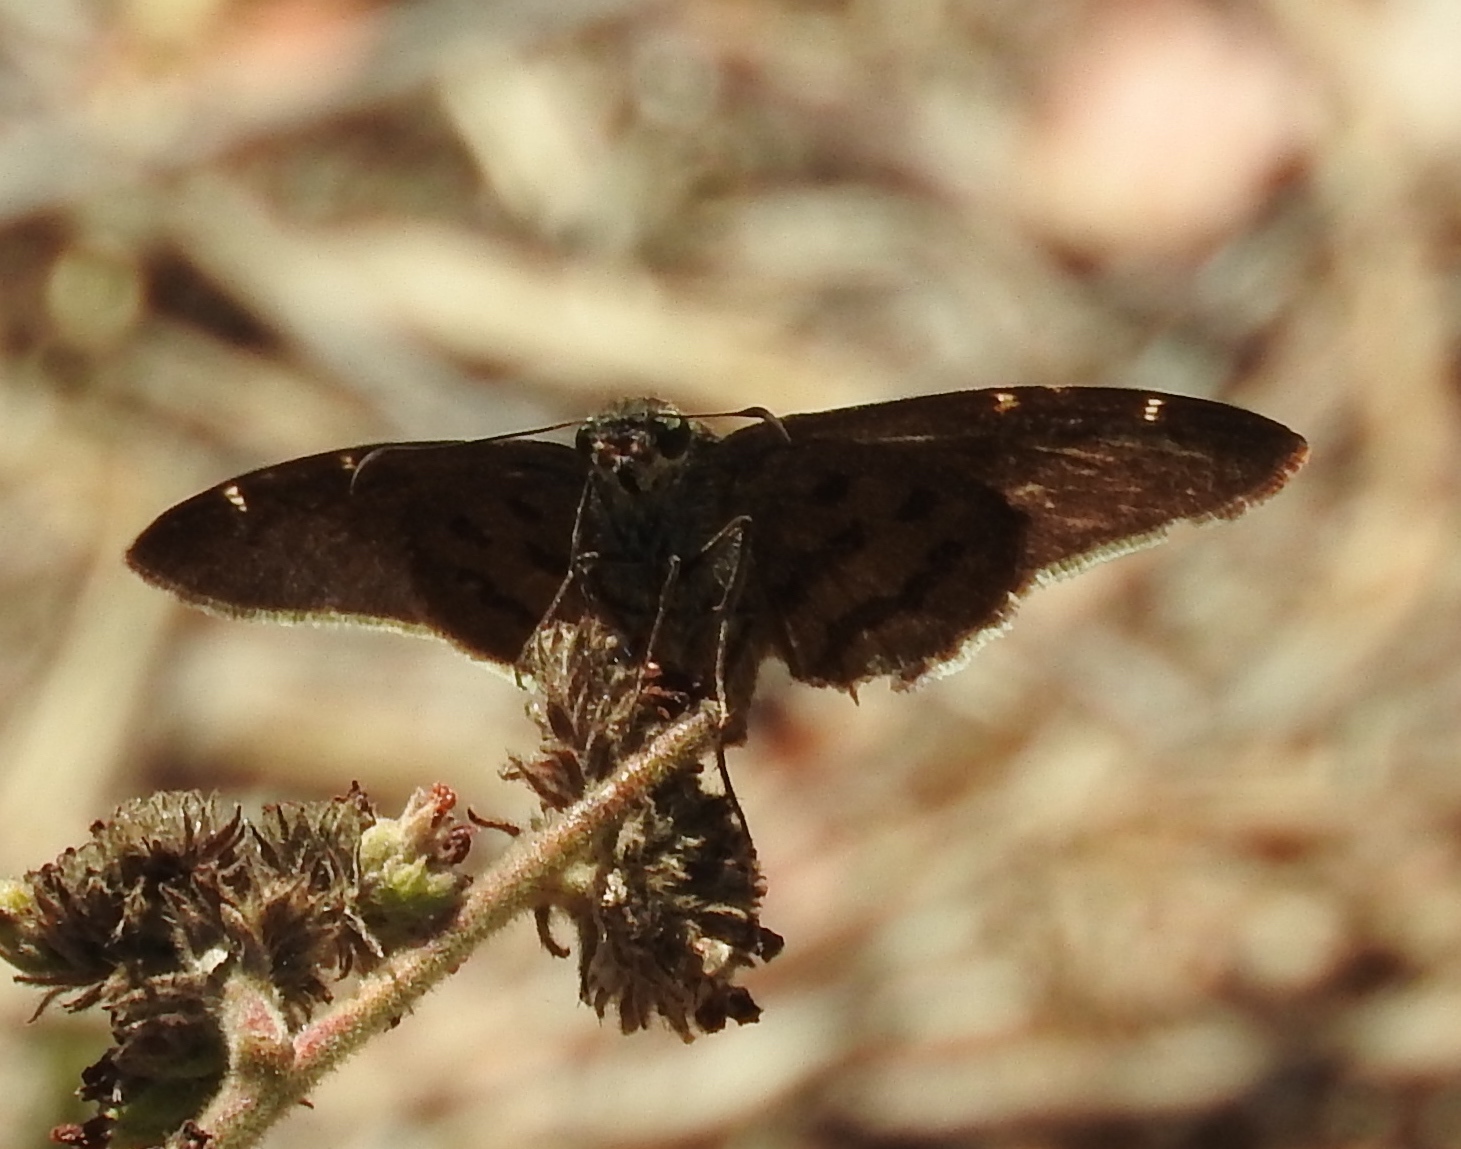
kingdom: Animalia
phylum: Arthropoda
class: Insecta
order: Lepidoptera
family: Hesperiidae
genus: Urbanus
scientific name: Urbanus procne
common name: Brown longtail
